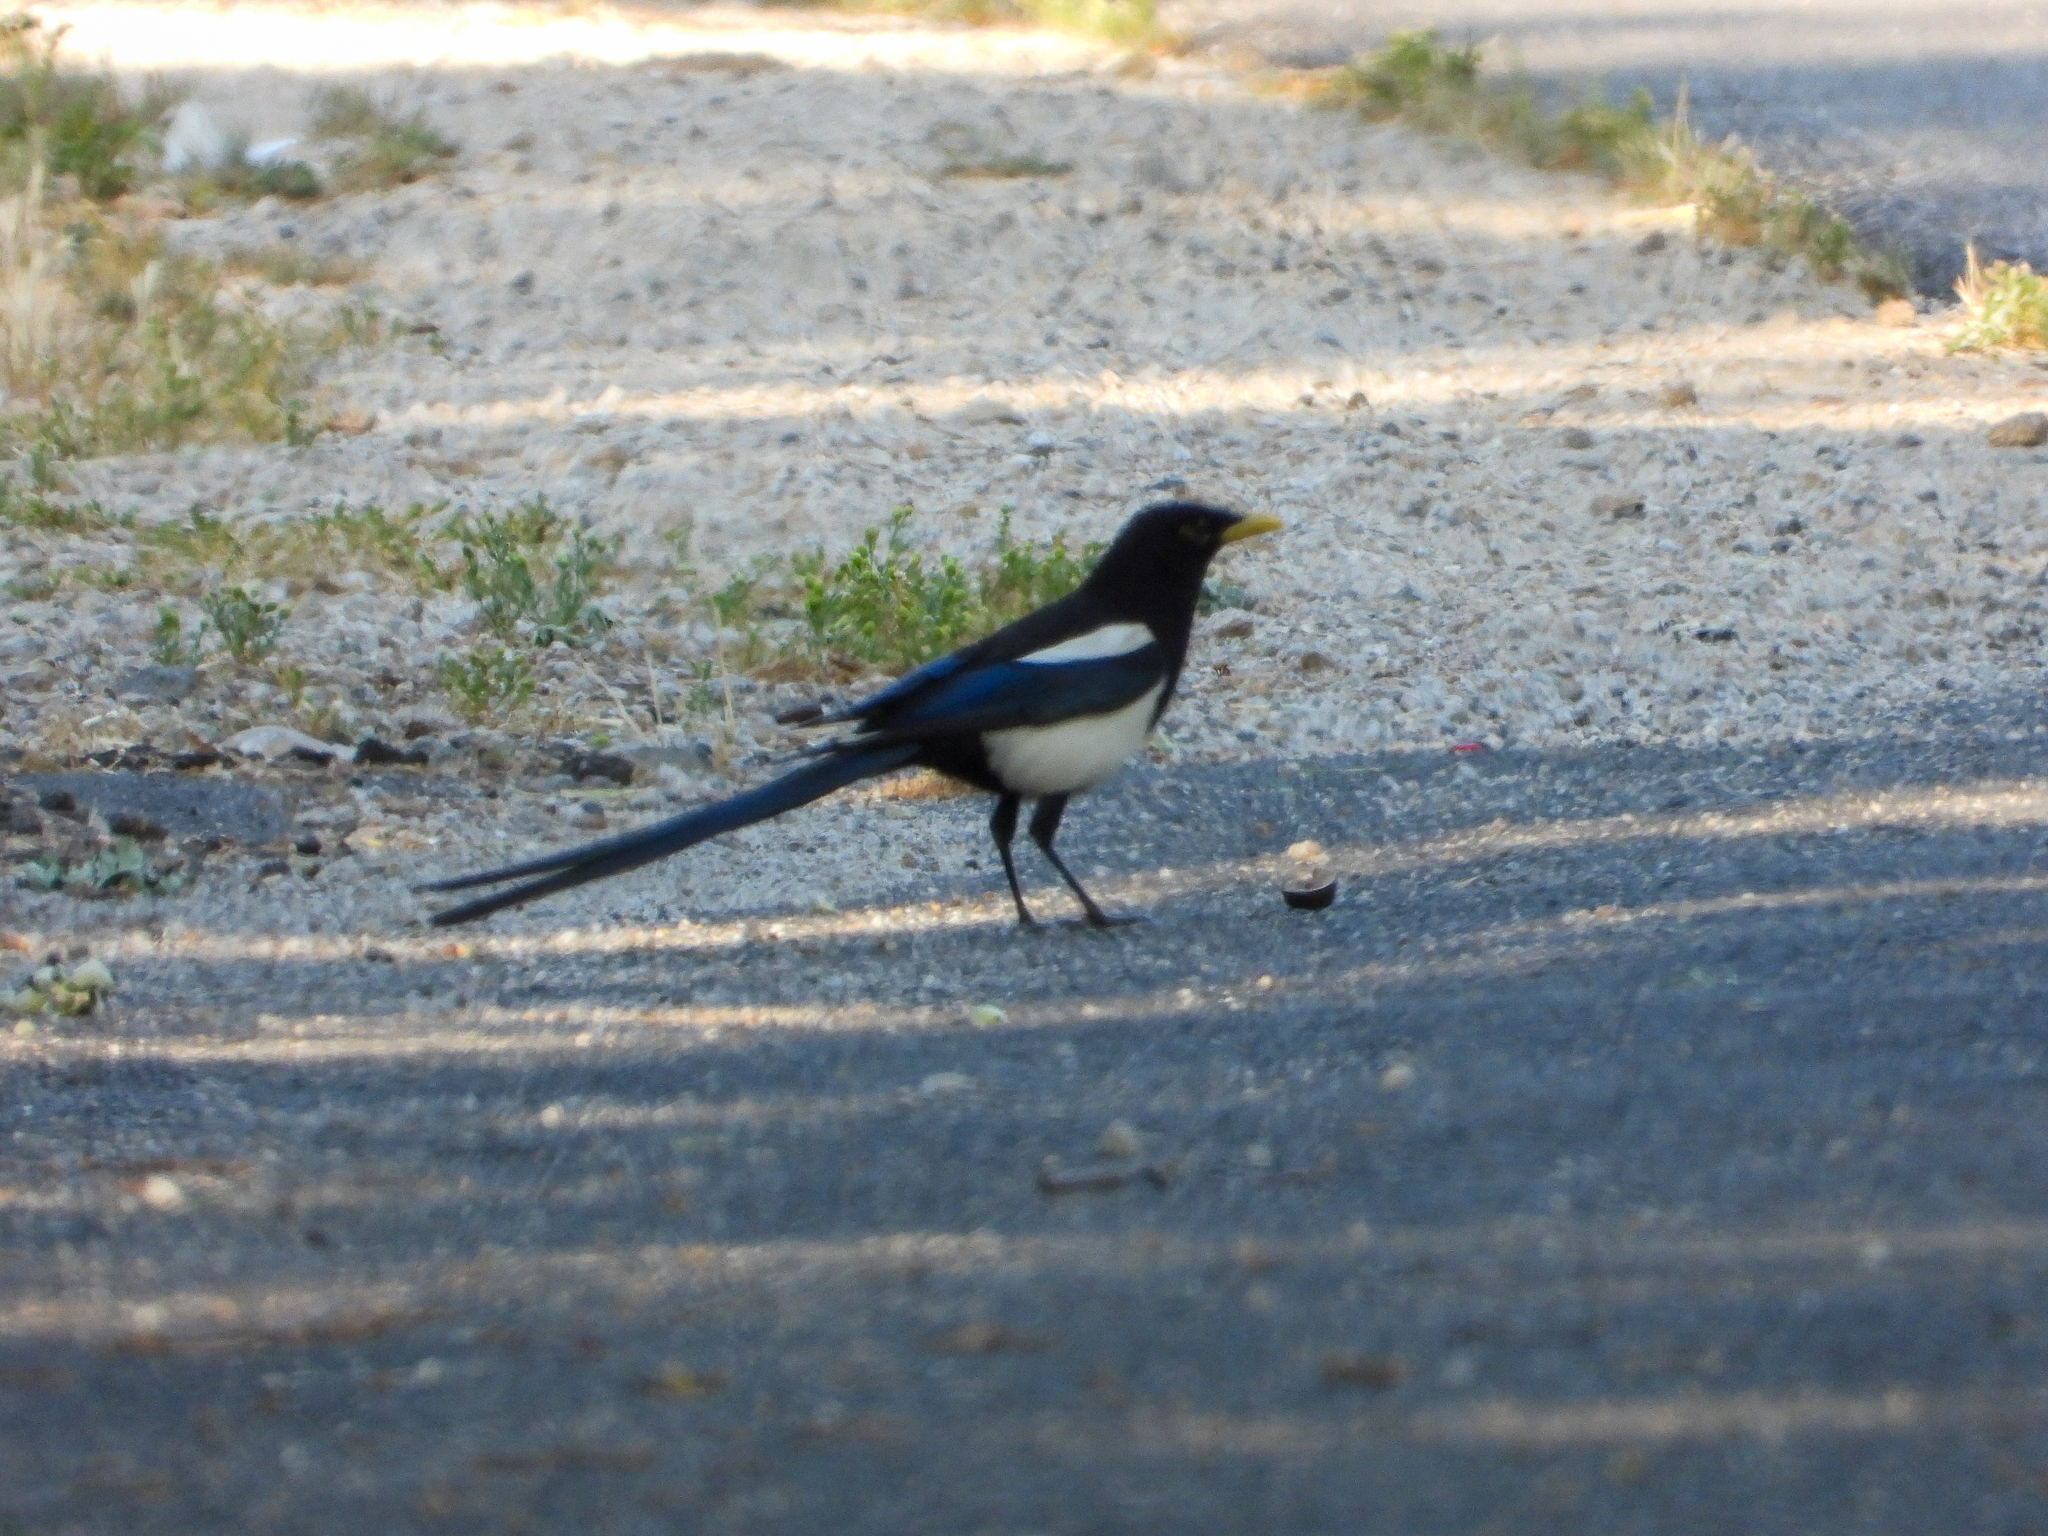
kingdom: Animalia
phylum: Chordata
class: Aves
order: Passeriformes
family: Corvidae
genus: Pica
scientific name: Pica nuttalli
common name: Yellow-billed magpie
